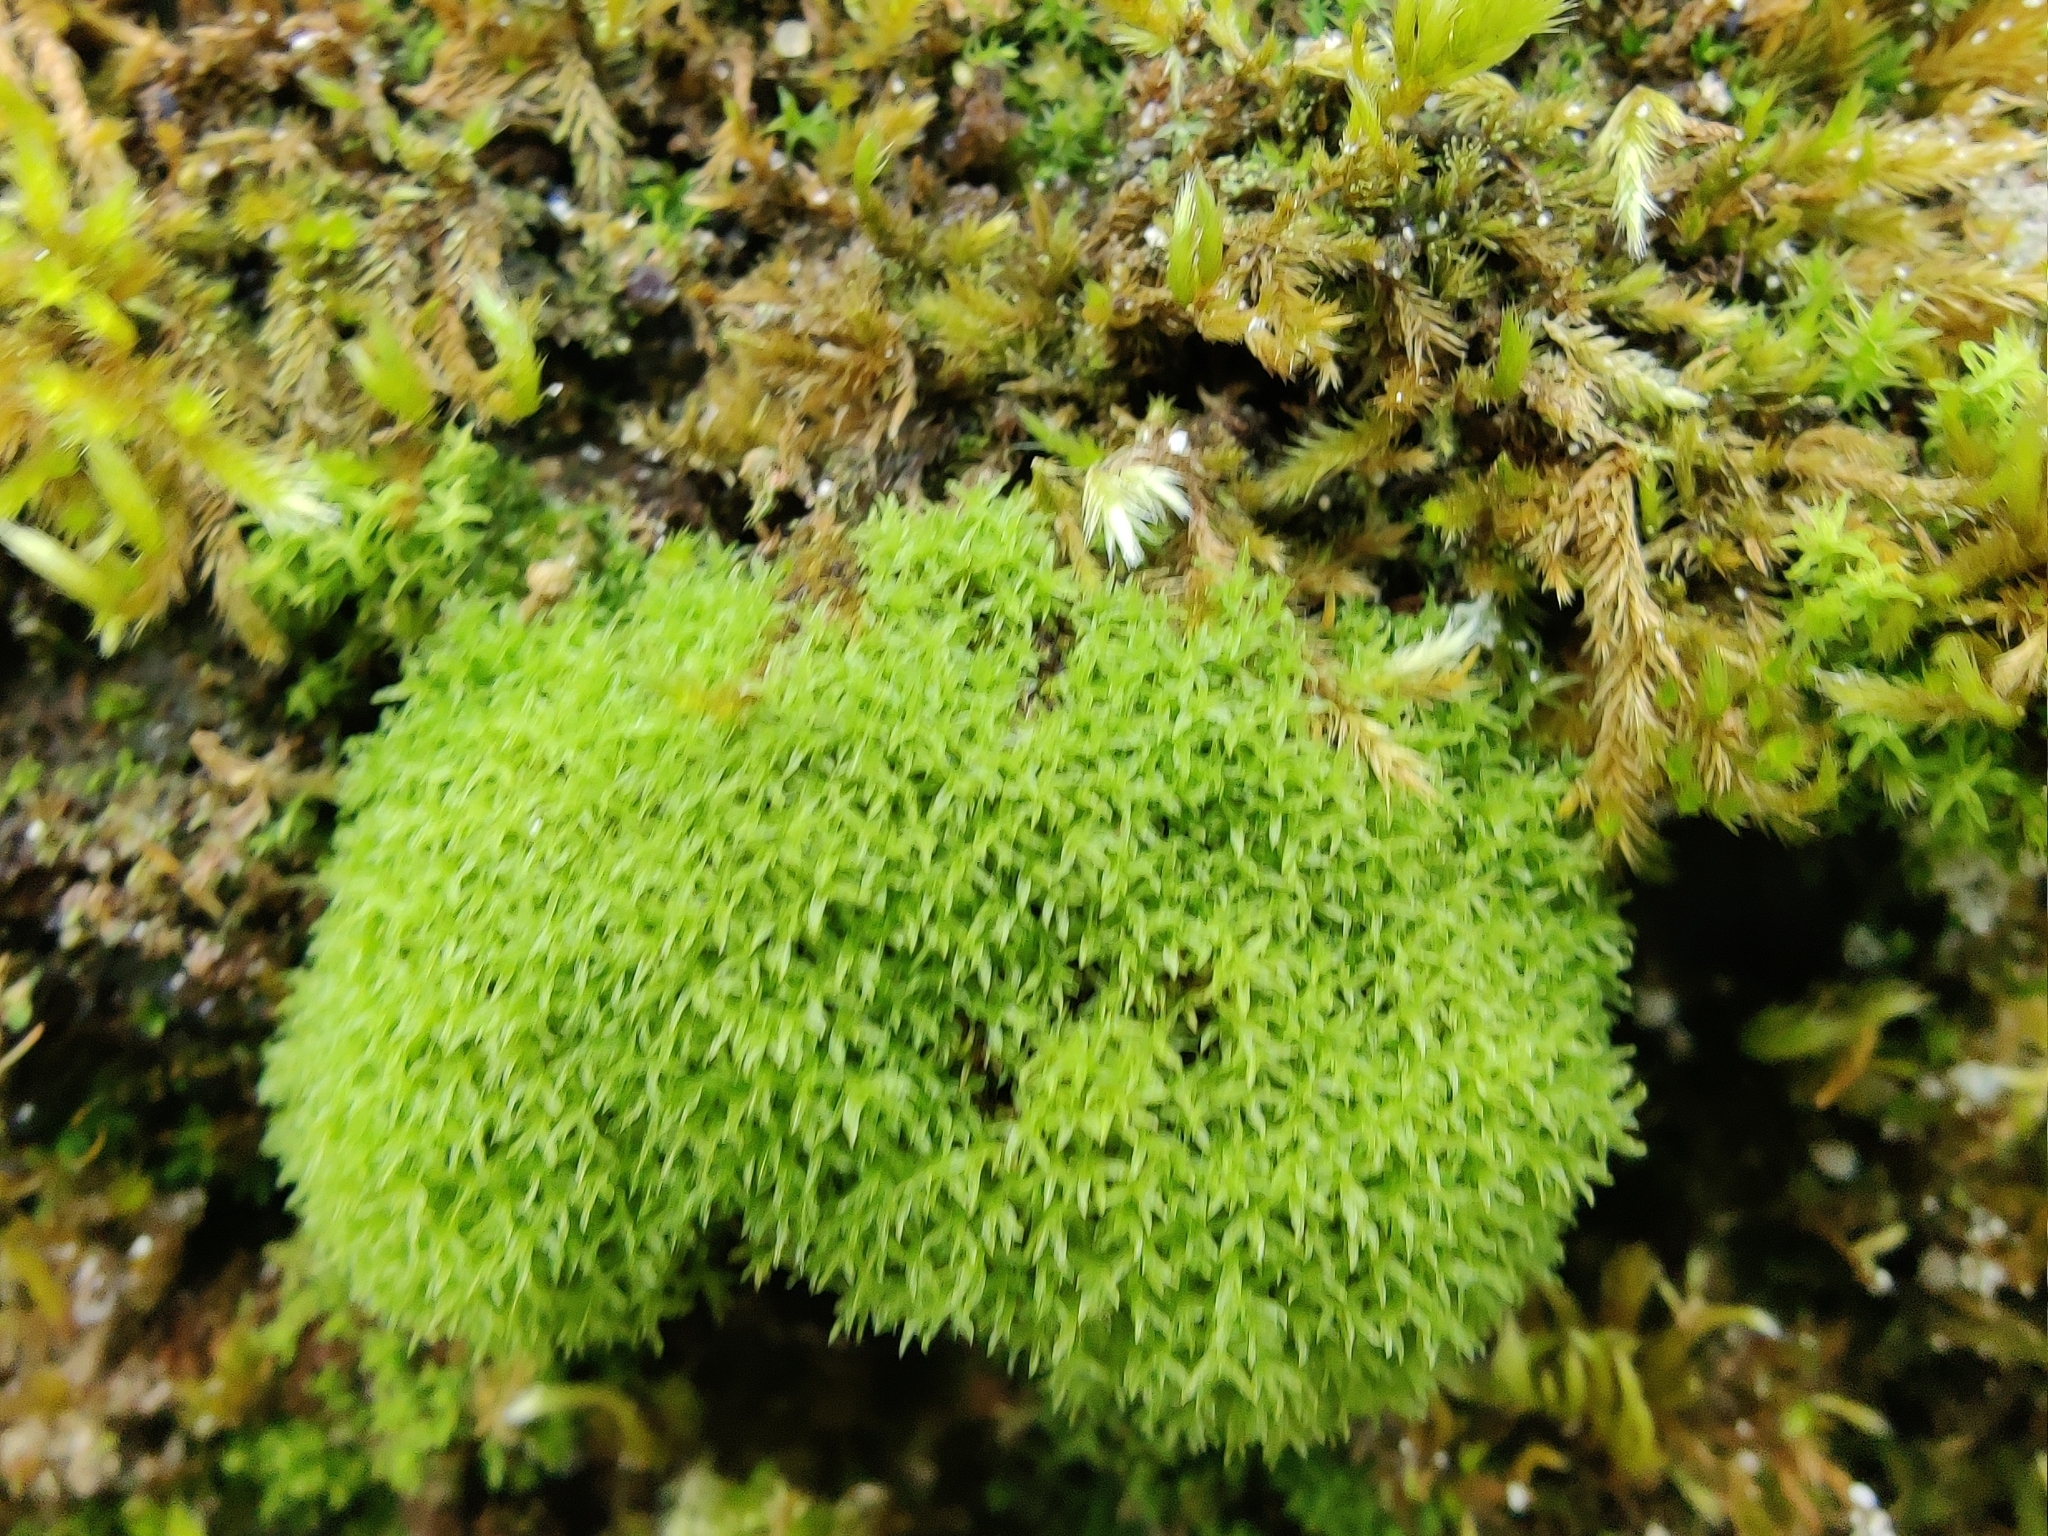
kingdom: Plantae
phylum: Bryophyta
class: Bryopsida
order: Pottiales
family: Pottiaceae
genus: Streblotrichum
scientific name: Streblotrichum convolutum
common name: Lesser bird's-claw beard-moss
